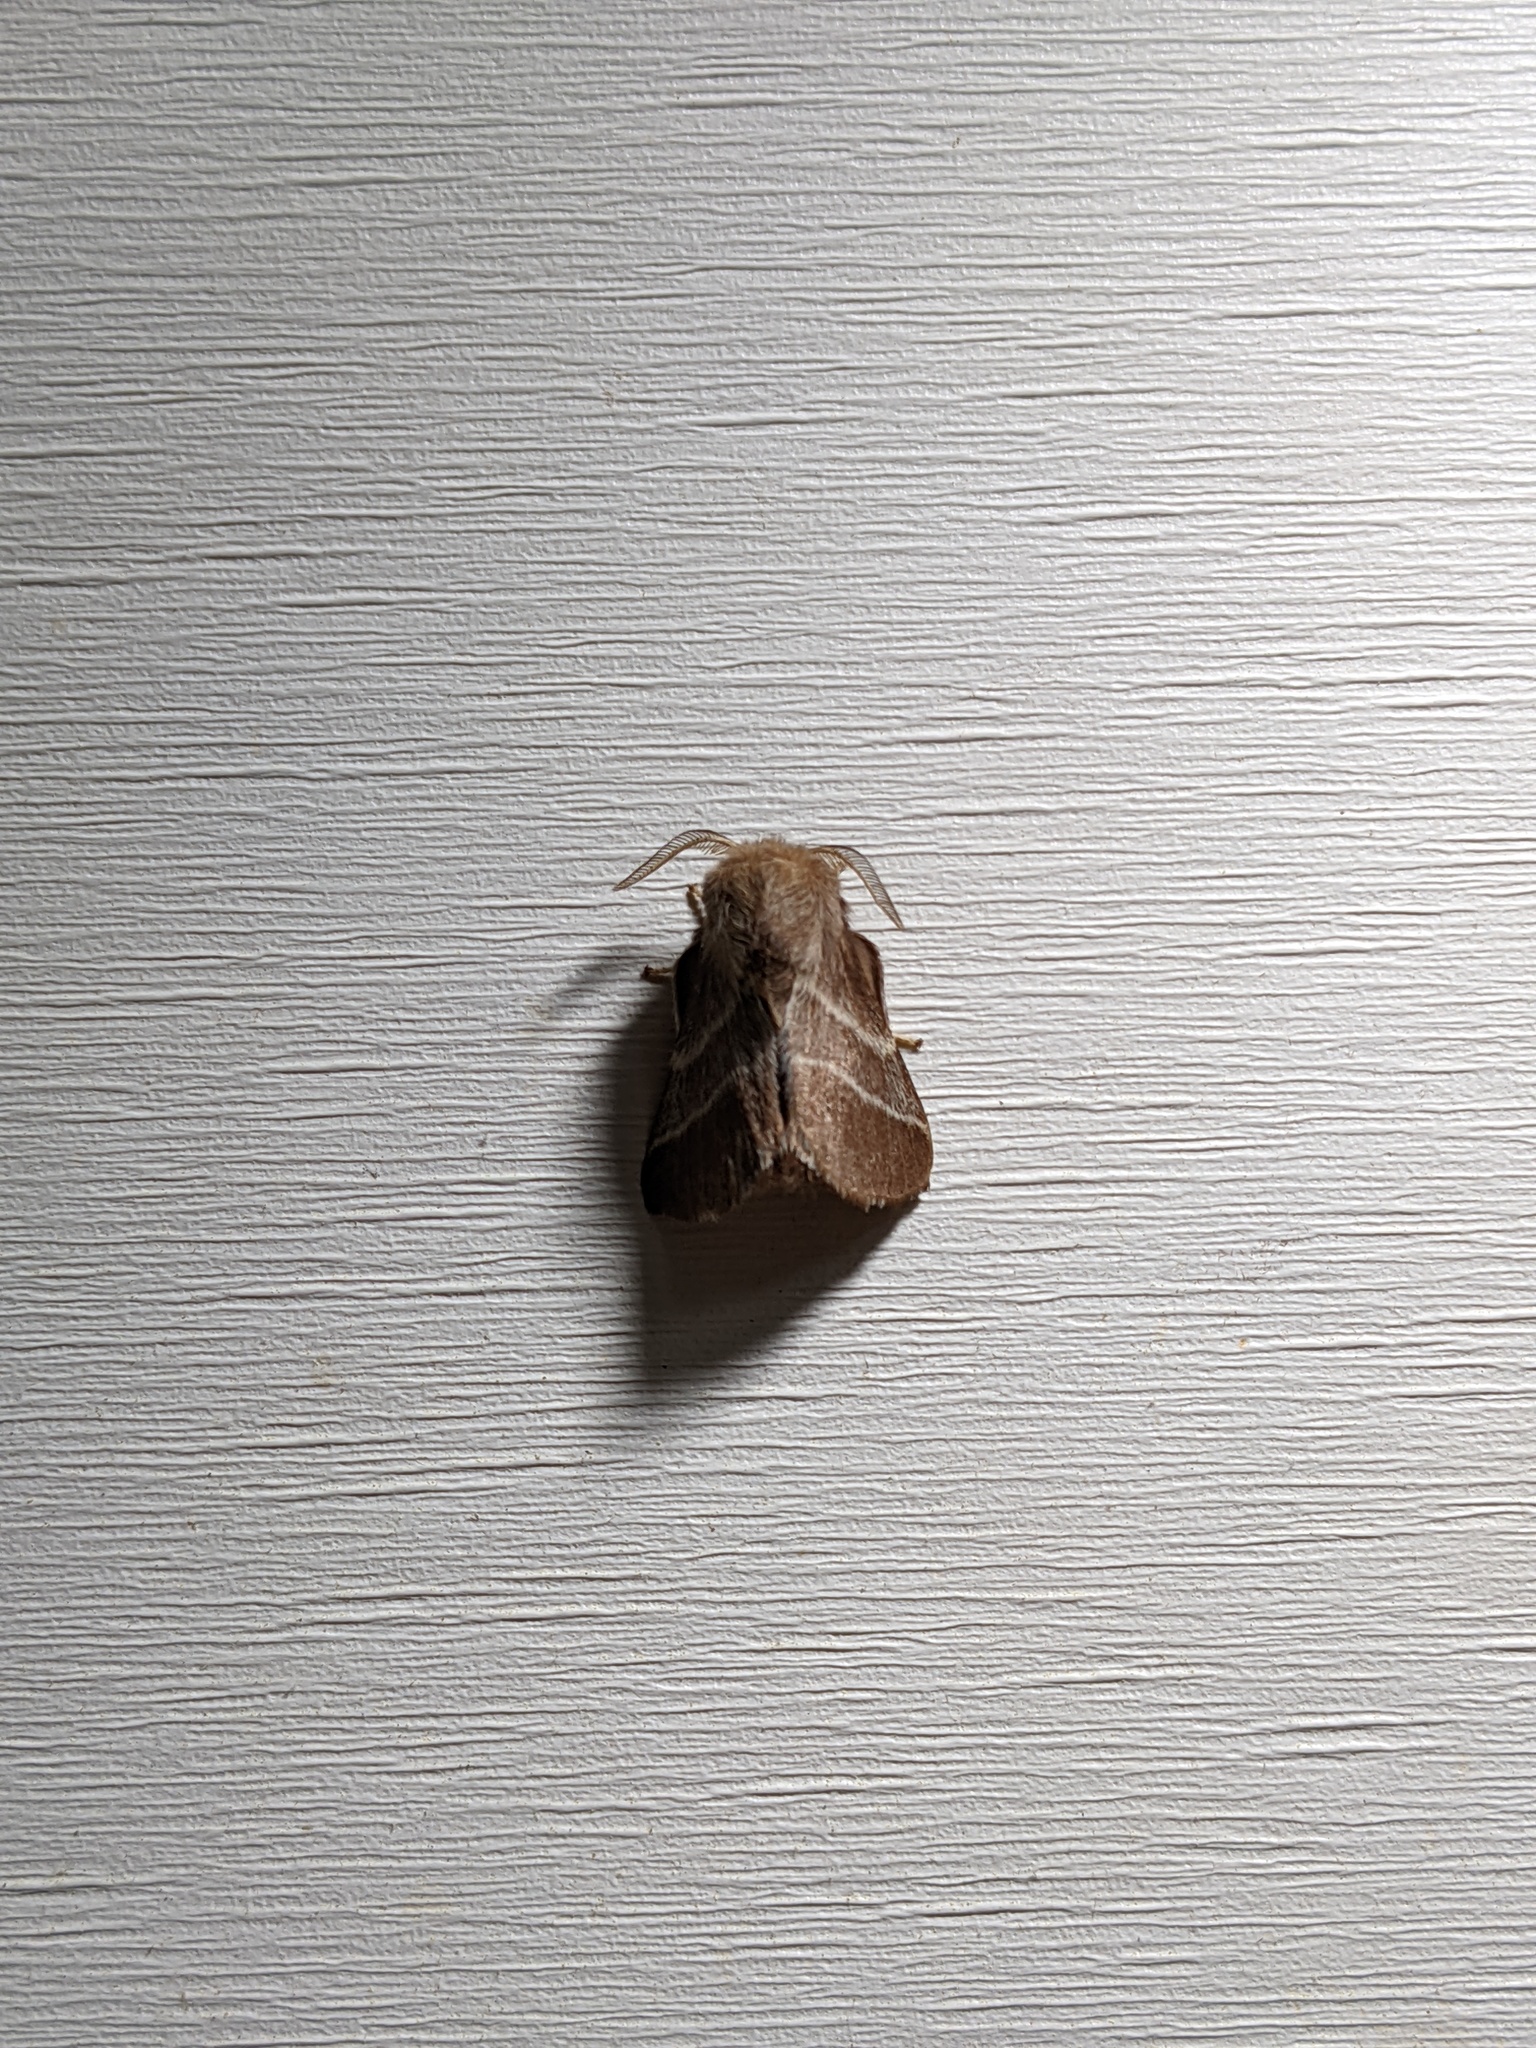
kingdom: Animalia
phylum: Arthropoda
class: Insecta
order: Lepidoptera
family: Lasiocampidae
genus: Malacosoma
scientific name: Malacosoma americana
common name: Eastern tent caterpillar moth
